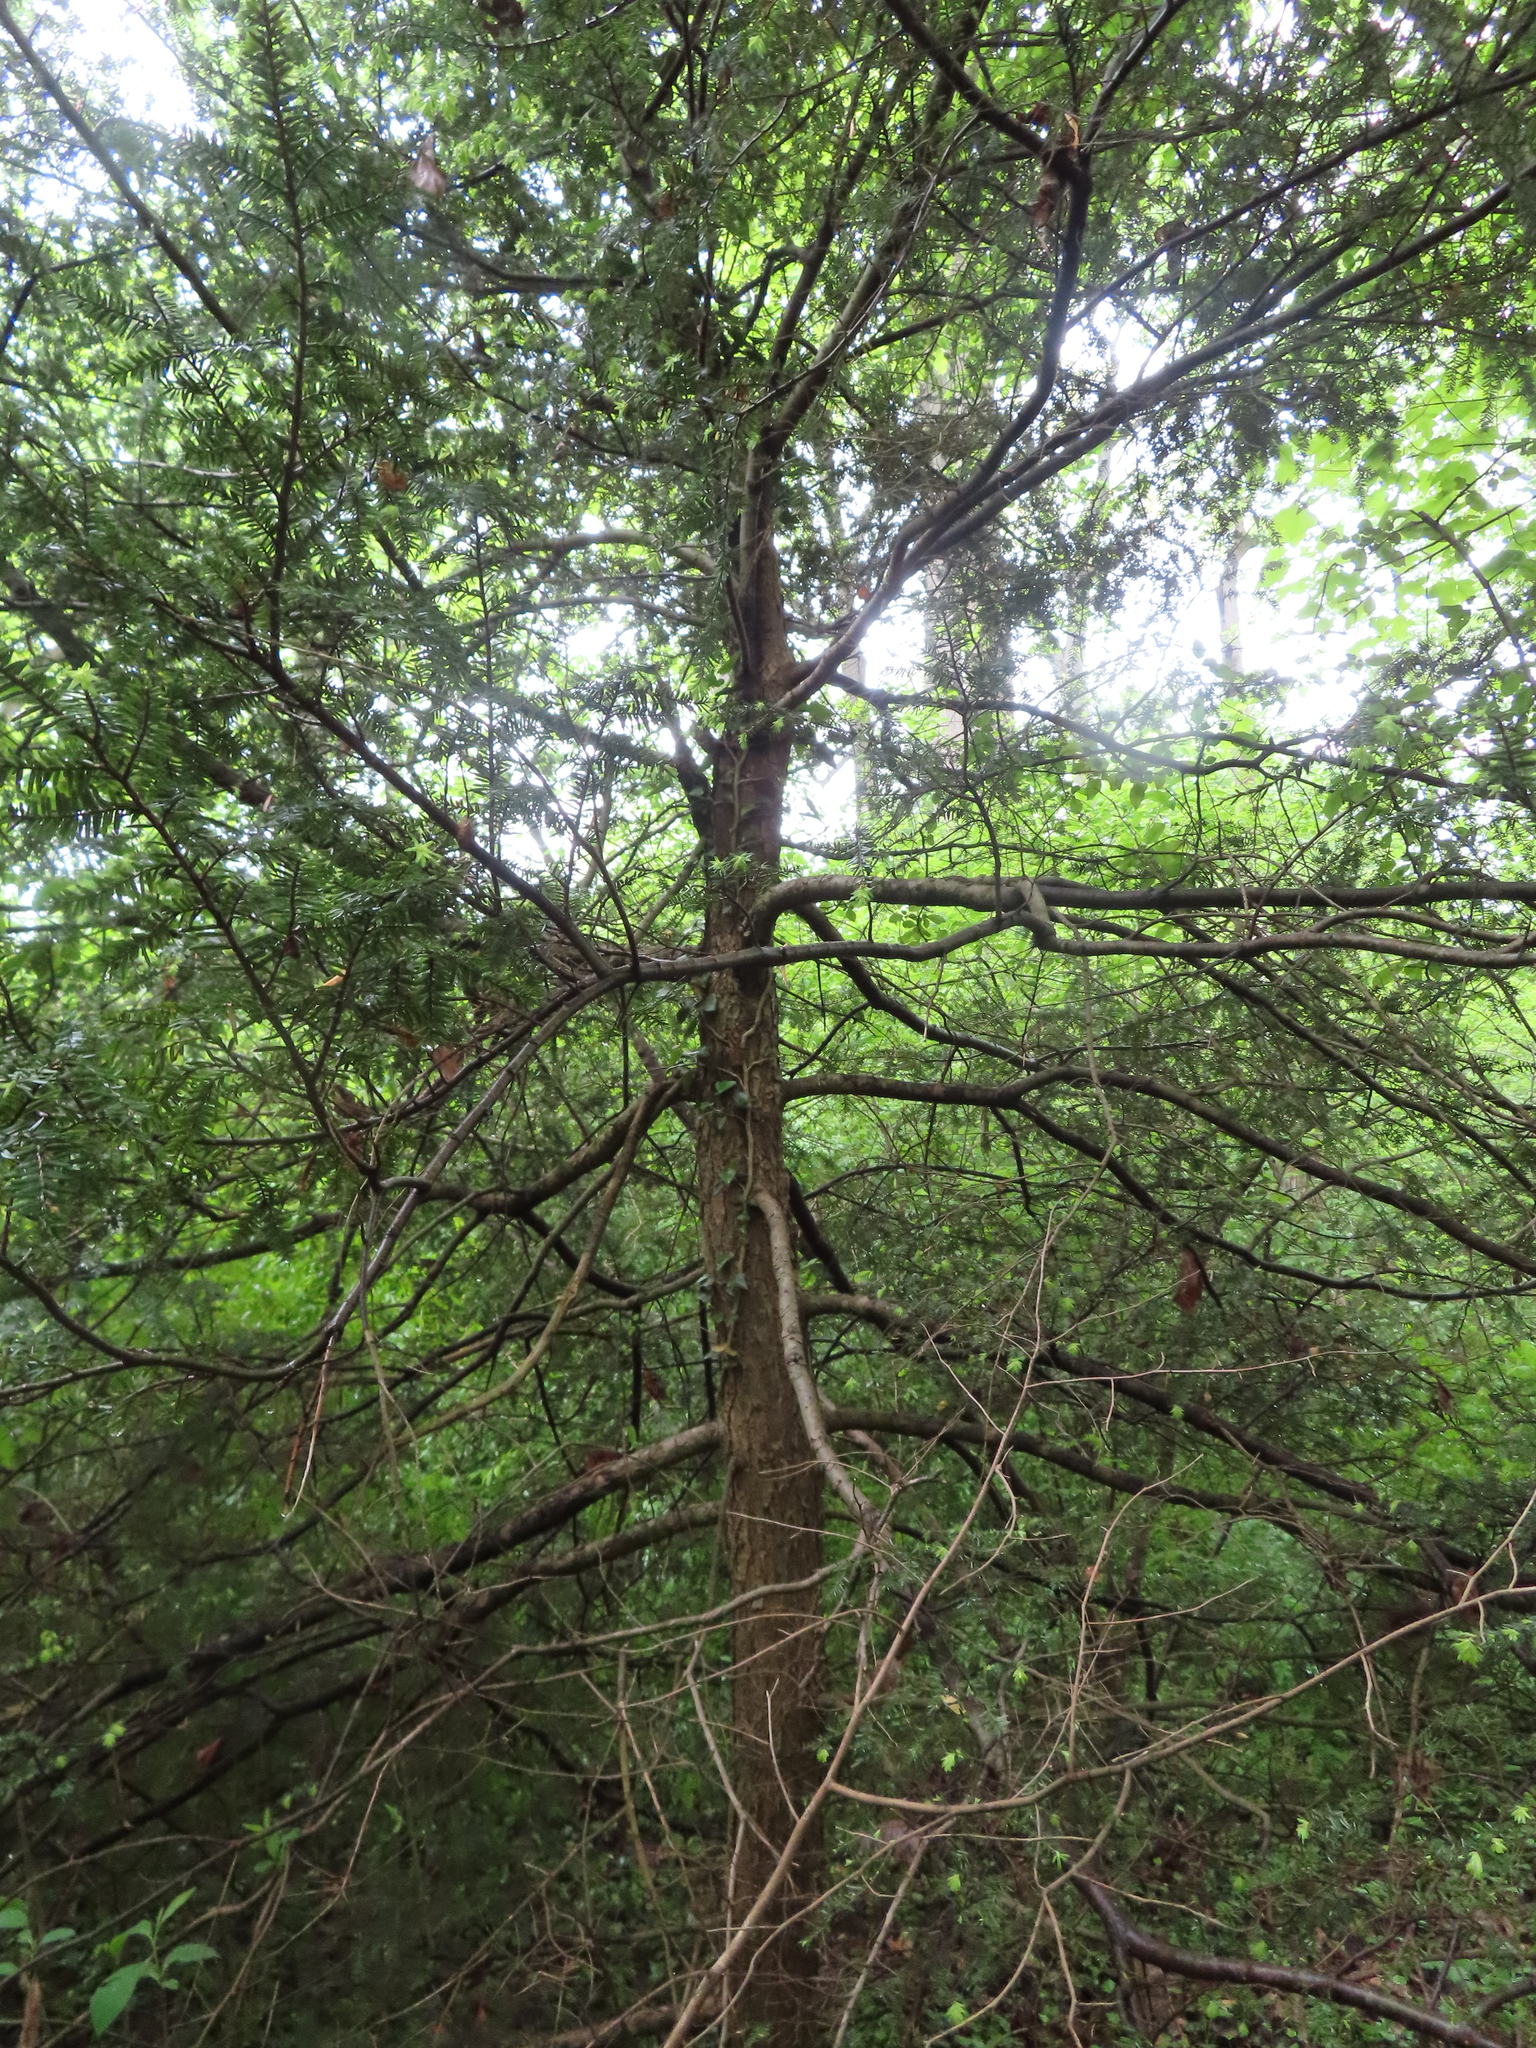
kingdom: Plantae
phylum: Tracheophyta
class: Pinopsida
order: Pinales
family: Pinaceae
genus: Tsuga
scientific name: Tsuga canadensis
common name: Eastern hemlock
